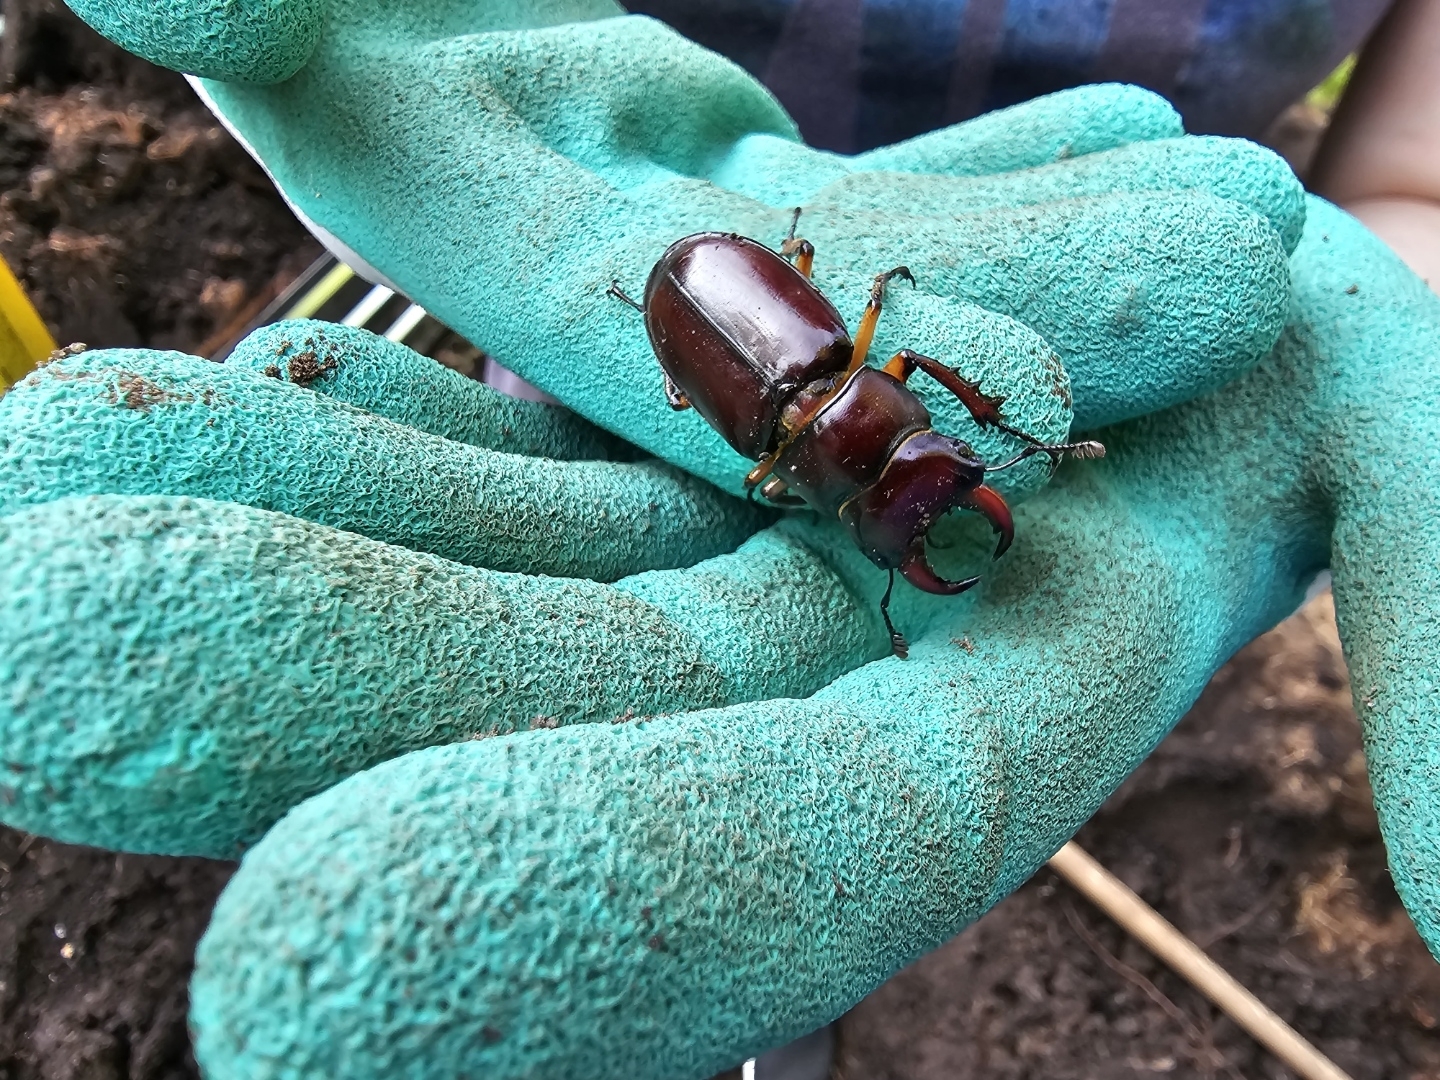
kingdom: Animalia
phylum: Arthropoda
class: Insecta
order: Coleoptera
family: Lucanidae
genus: Lucanus
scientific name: Lucanus capreolus
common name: Stag beetle
